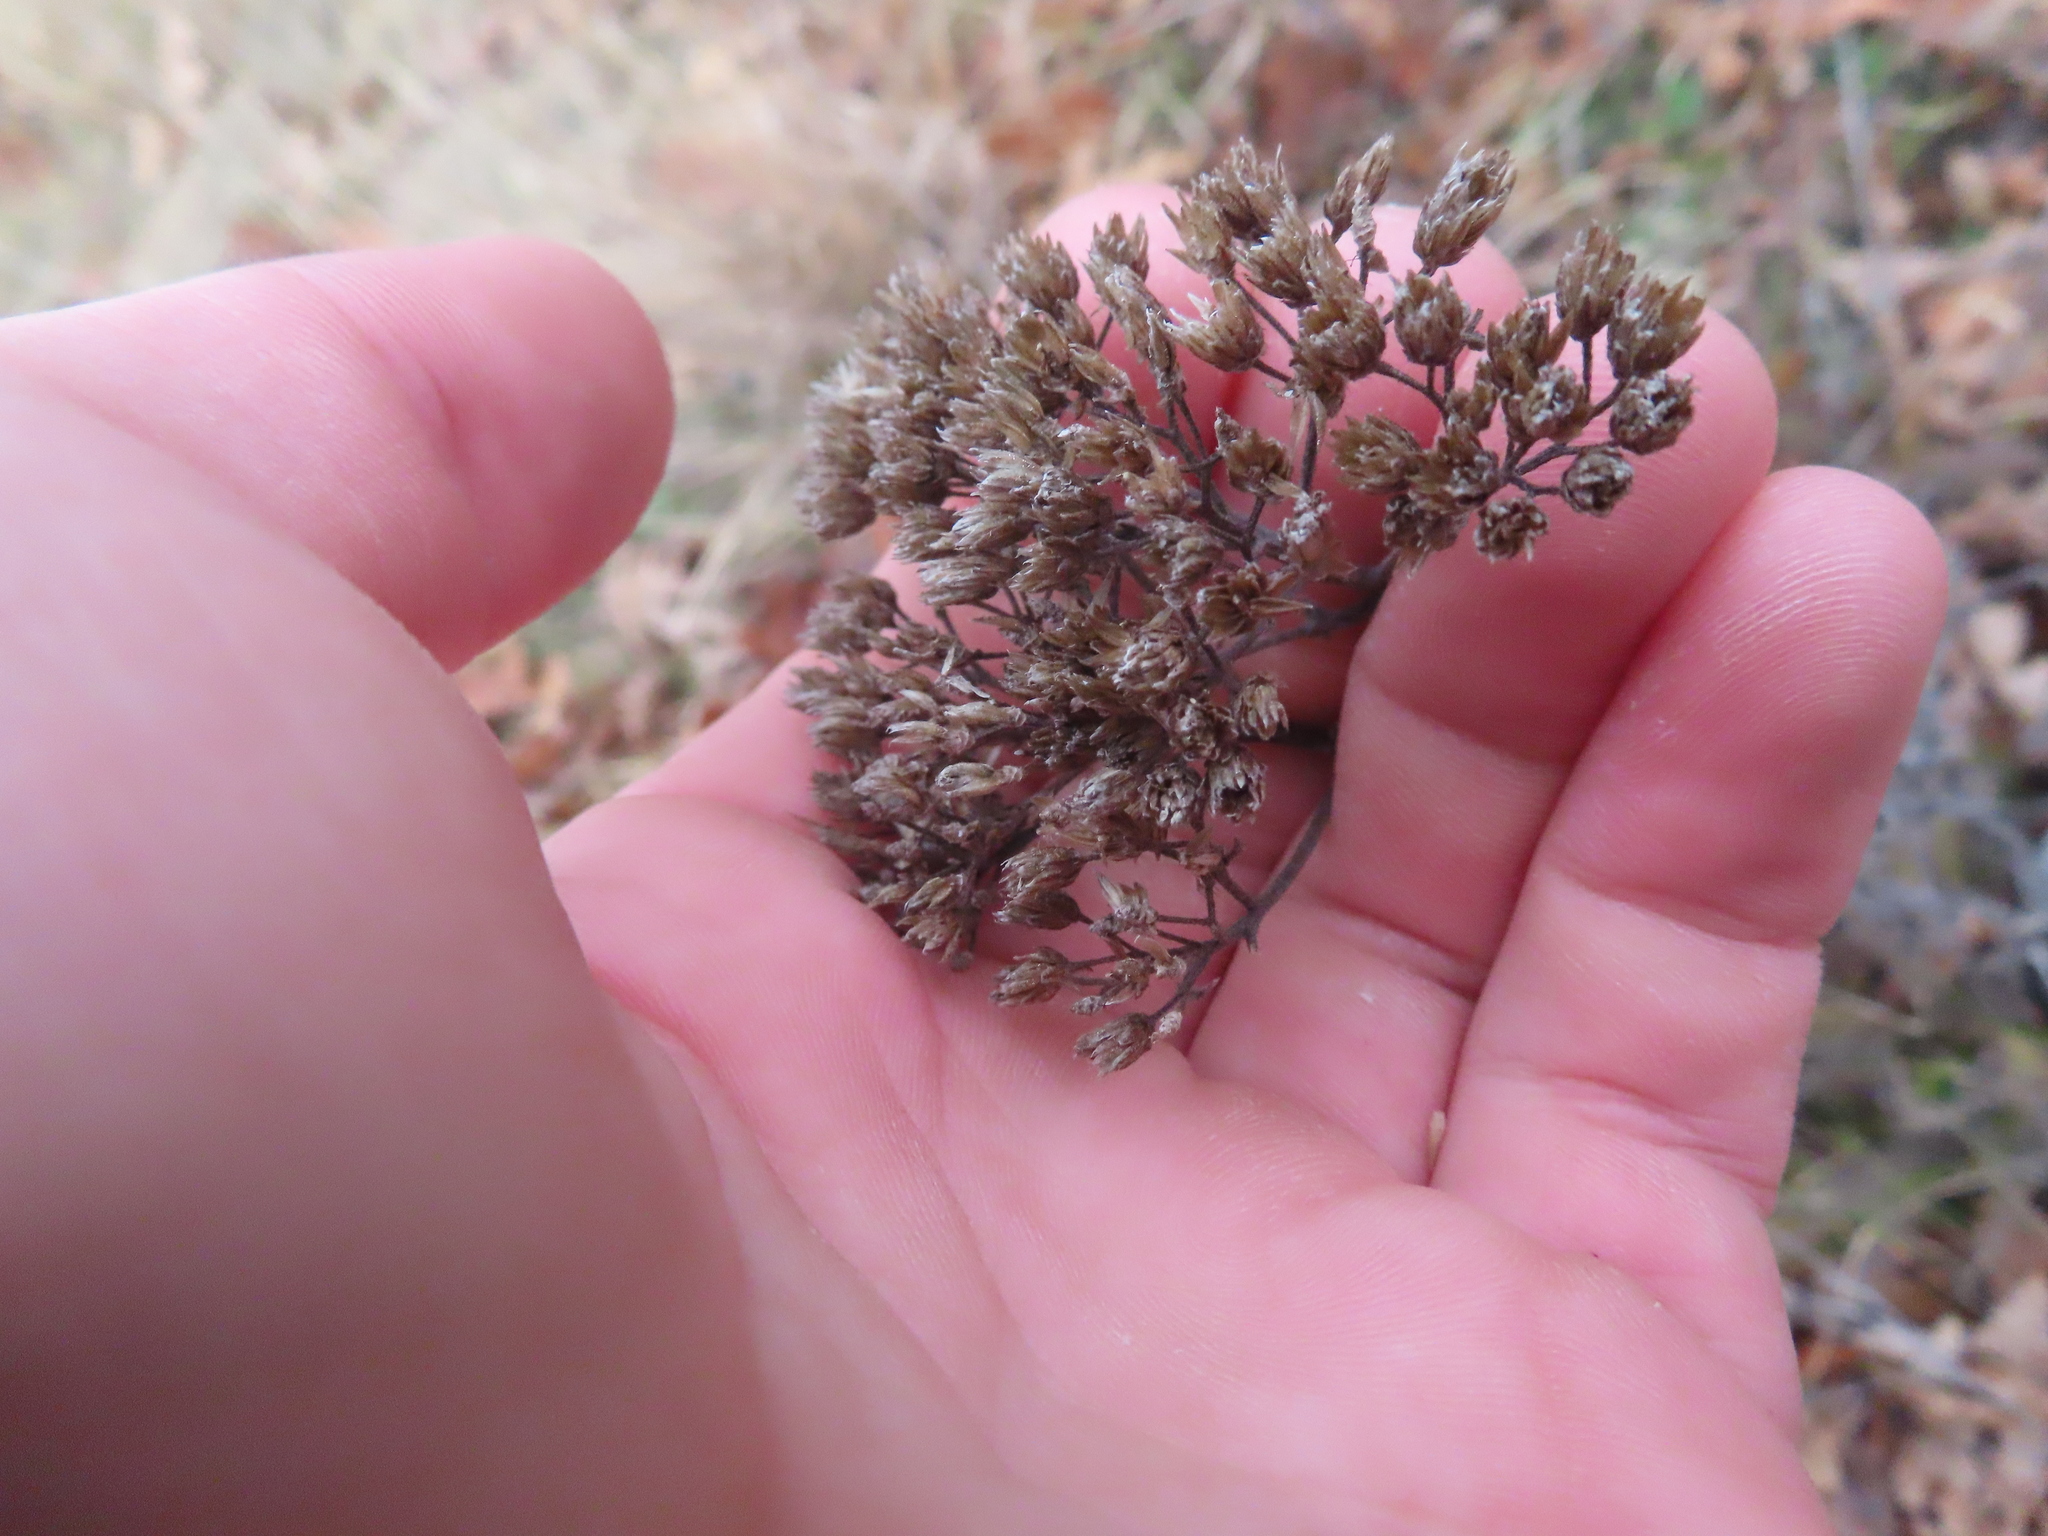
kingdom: Plantae
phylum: Tracheophyta
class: Magnoliopsida
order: Asterales
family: Asteraceae
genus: Achillea
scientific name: Achillea millefolium
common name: Yarrow
